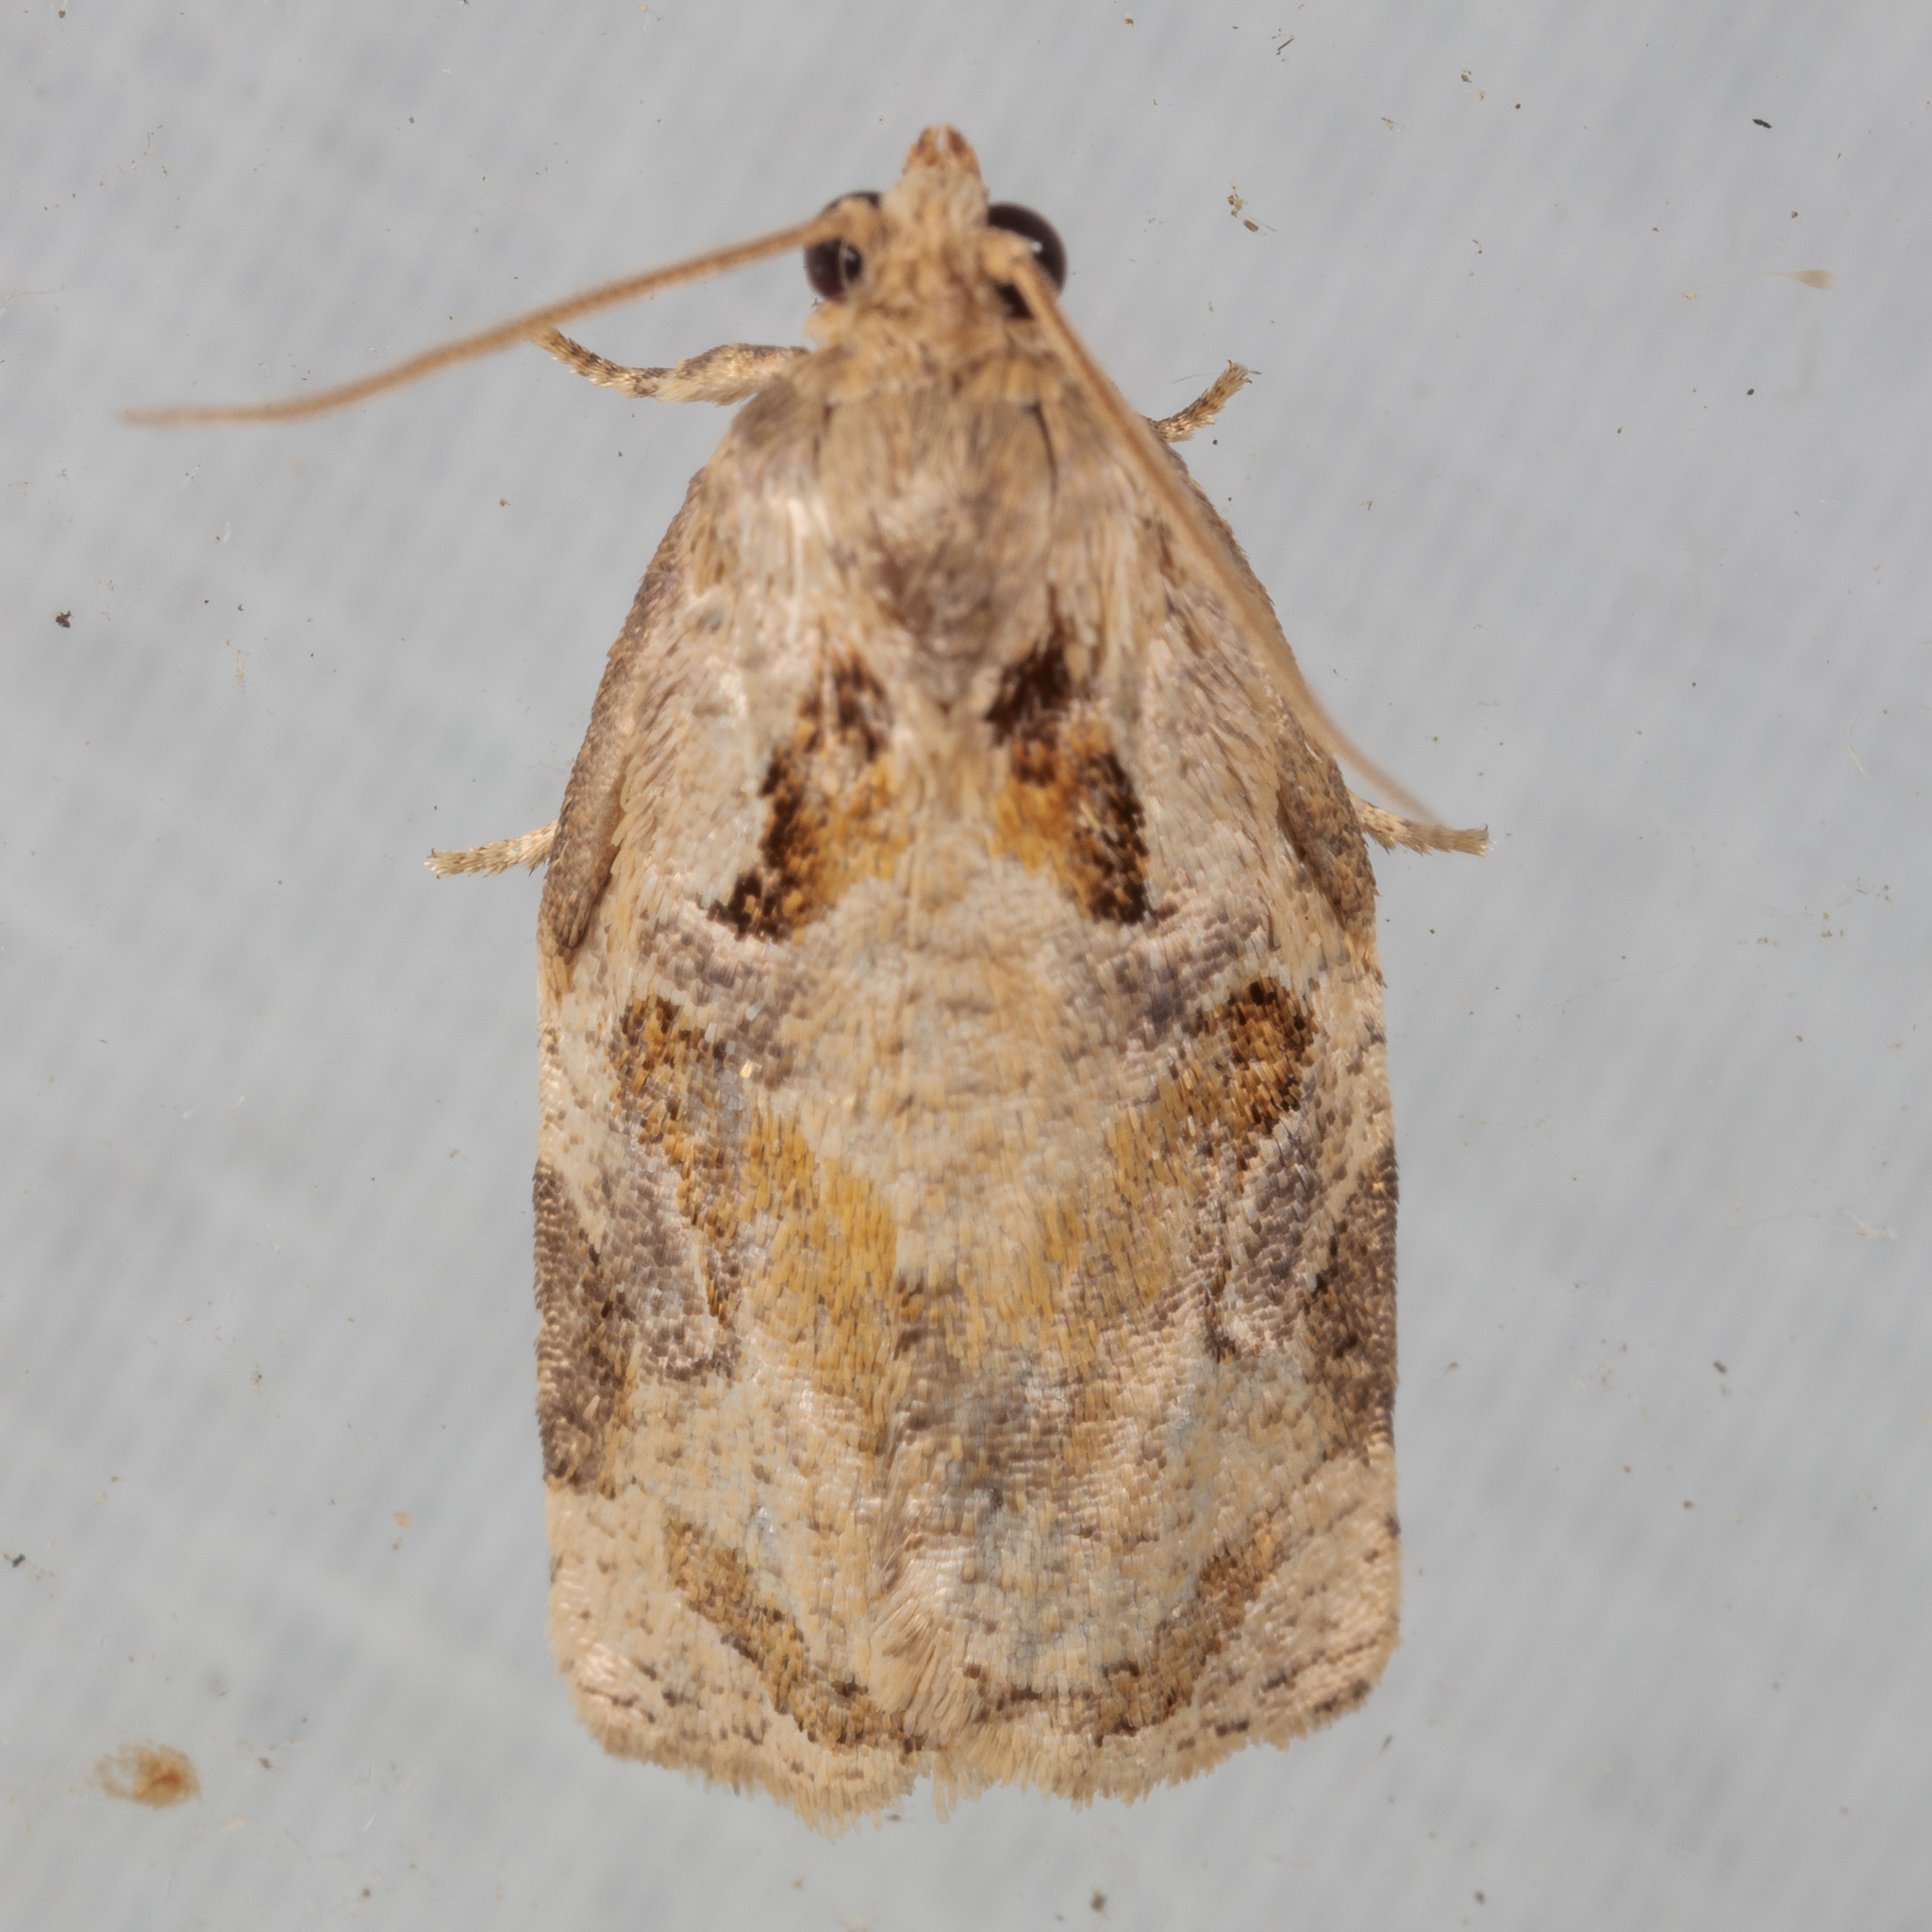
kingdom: Animalia
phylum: Arthropoda
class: Insecta
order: Lepidoptera
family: Tortricidae
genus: Archips
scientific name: Archips grisea
